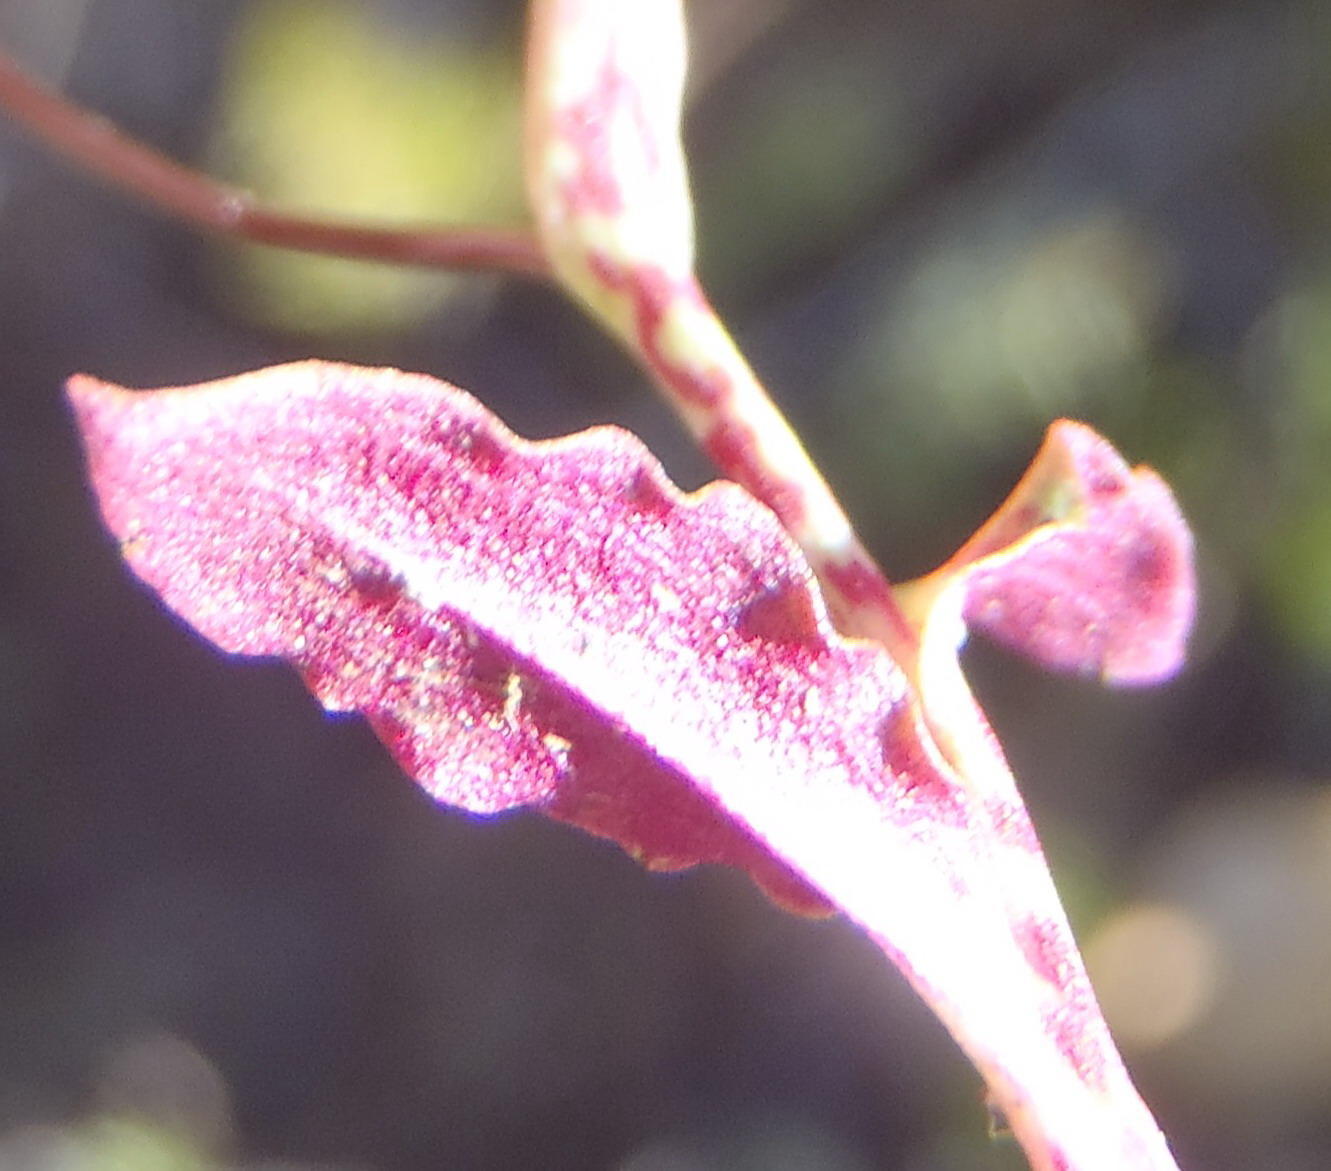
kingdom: Plantae
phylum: Tracheophyta
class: Liliopsida
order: Asparagales
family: Orchidaceae
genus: Disa
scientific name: Disa inflexa
